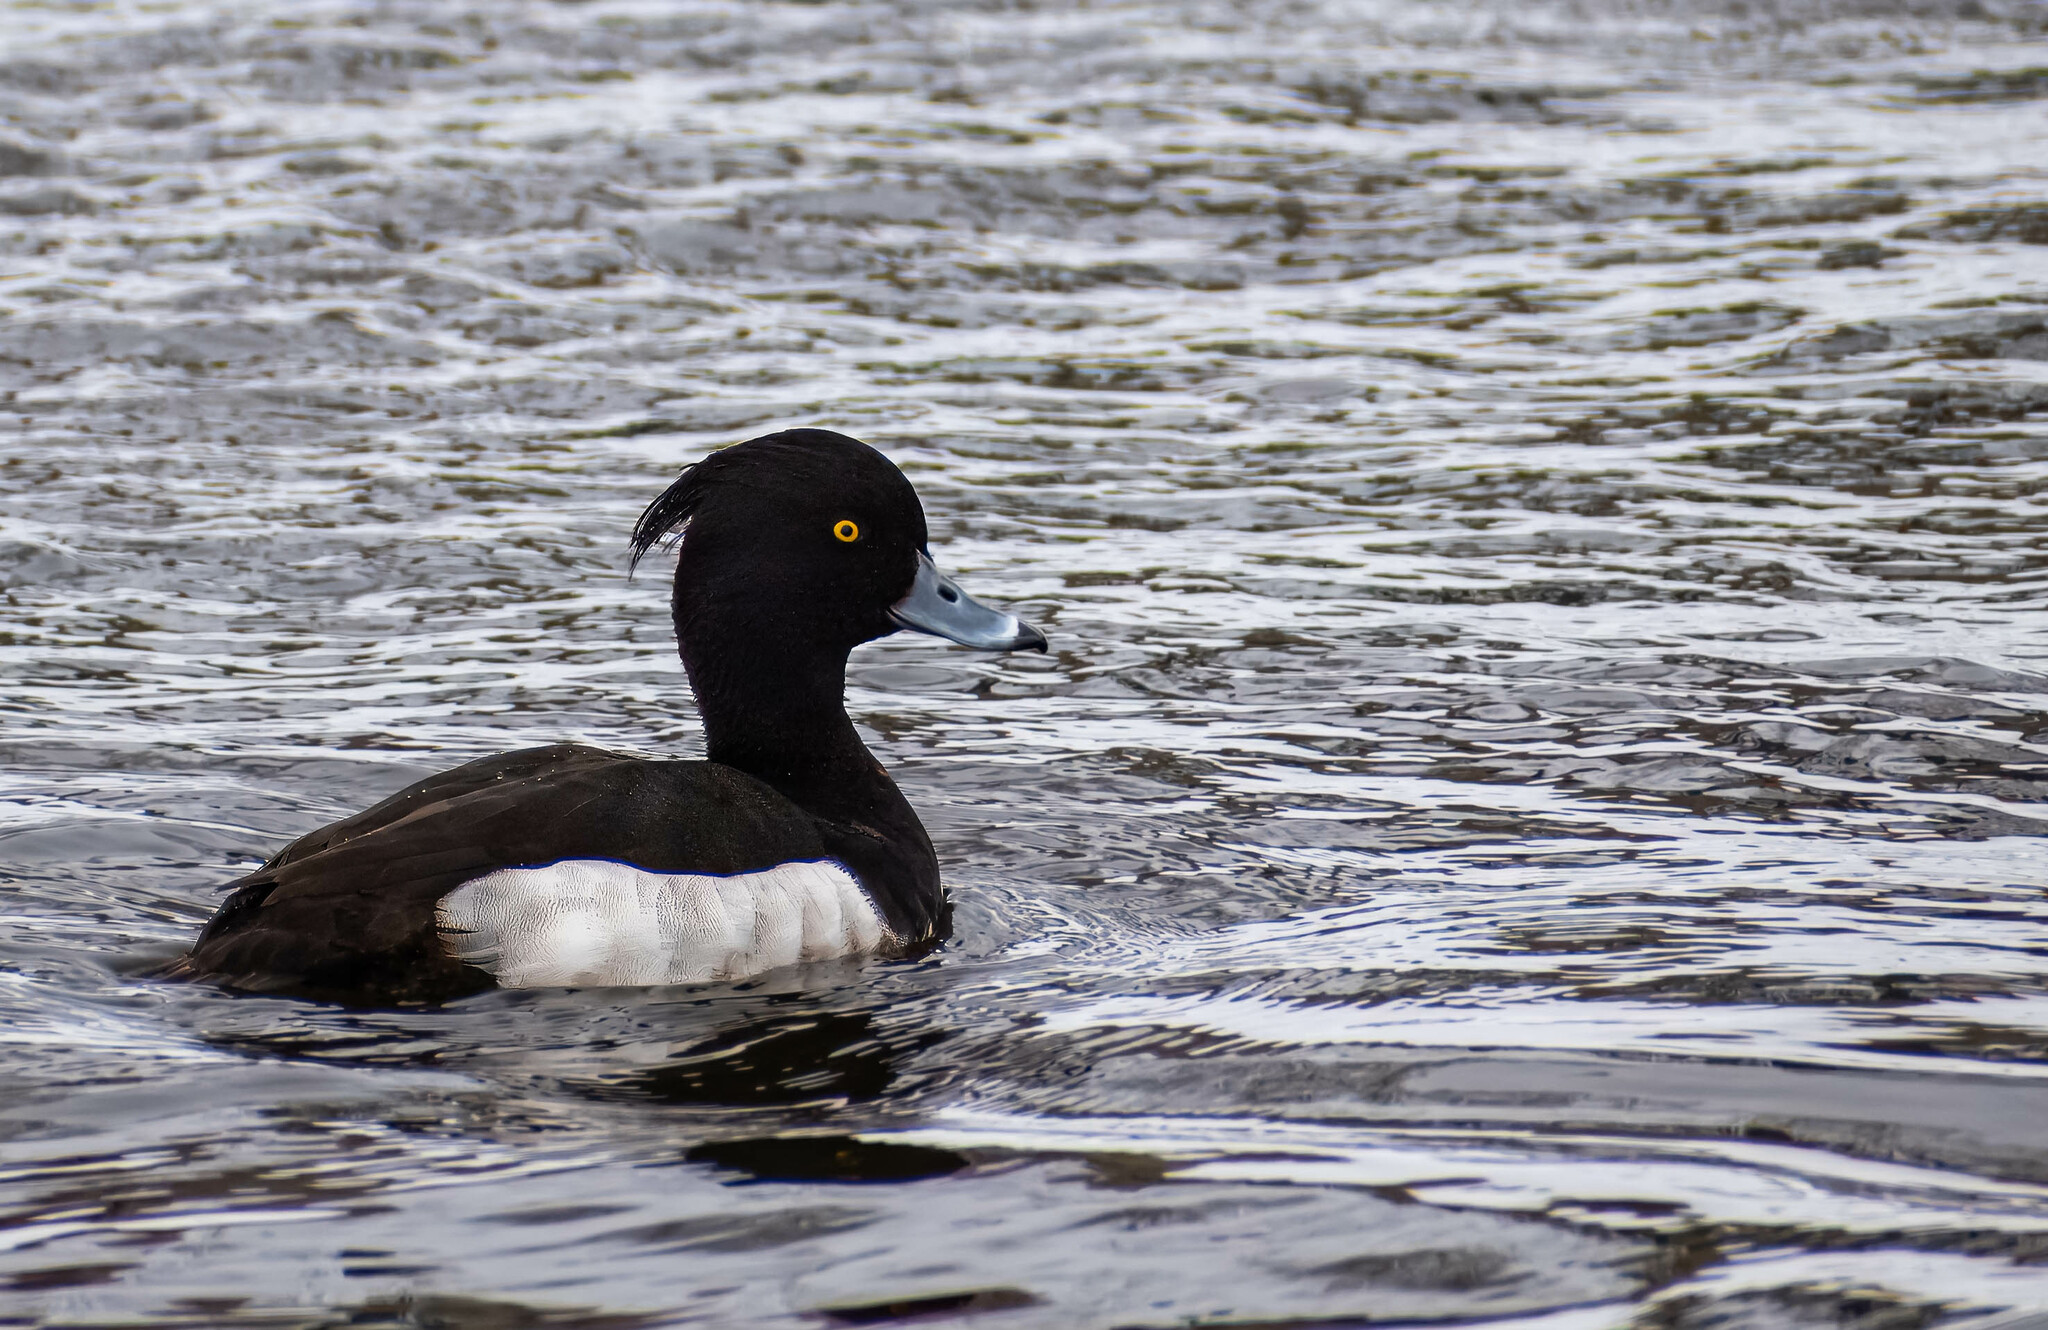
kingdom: Animalia
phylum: Chordata
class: Aves
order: Anseriformes
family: Anatidae
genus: Aythya
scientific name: Aythya fuligula
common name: Tufted duck
